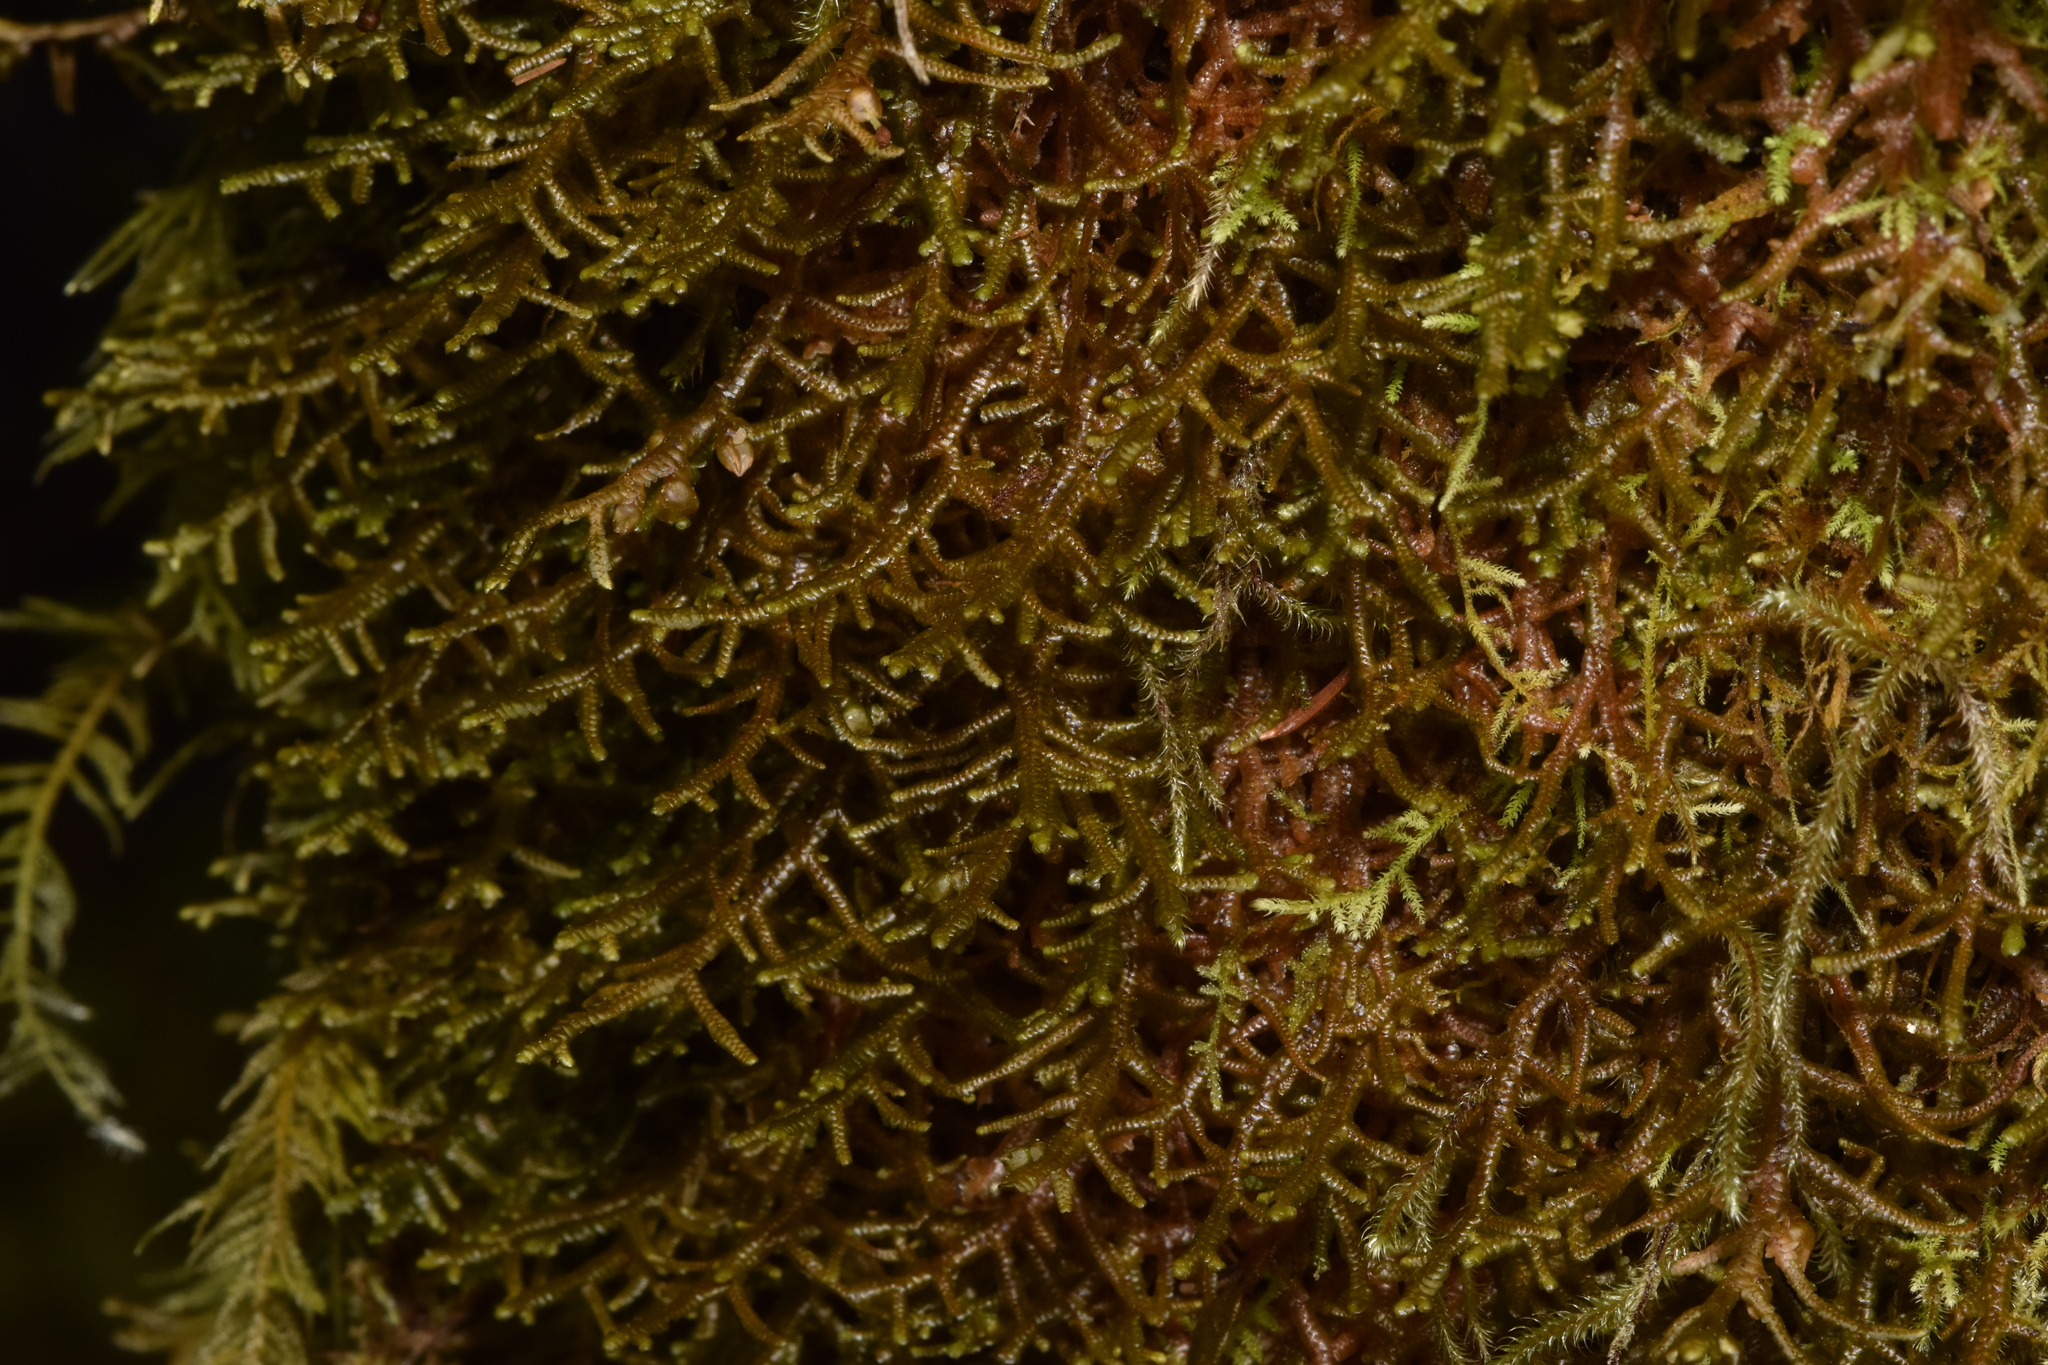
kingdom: Plantae
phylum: Marchantiophyta
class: Jungermanniopsida
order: Porellales
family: Porellaceae
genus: Porella
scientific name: Porella navicularis
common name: Tree ruffle liverwort
